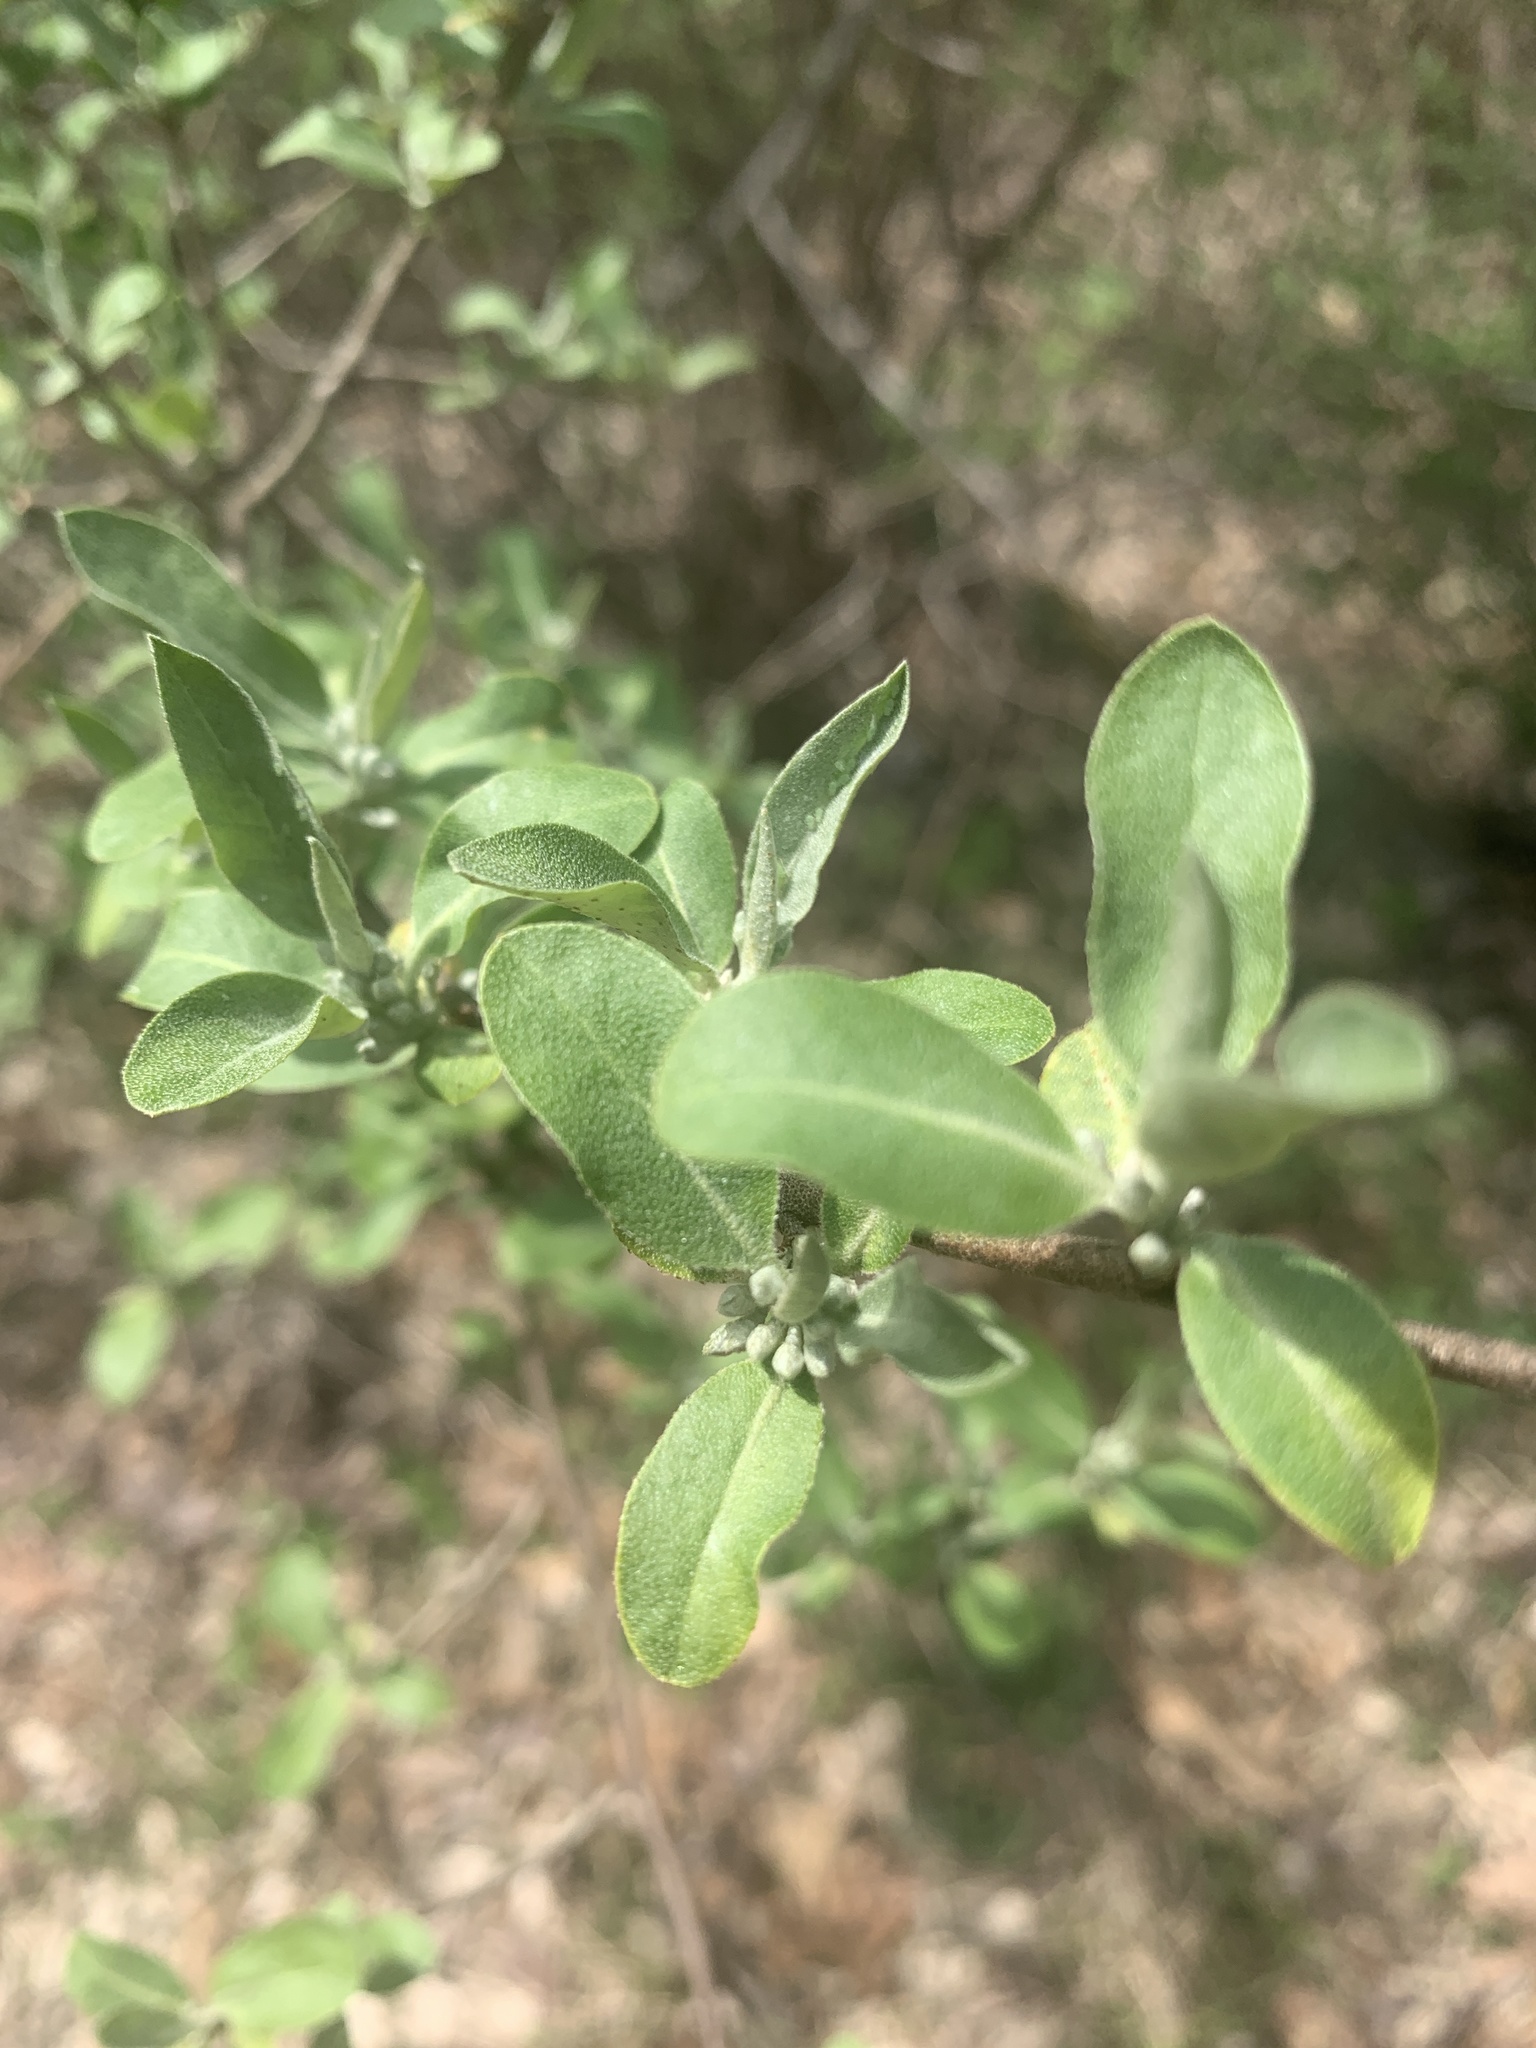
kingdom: Plantae
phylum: Tracheophyta
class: Magnoliopsida
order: Rosales
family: Elaeagnaceae
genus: Elaeagnus
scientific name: Elaeagnus umbellata
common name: Autumn olive
